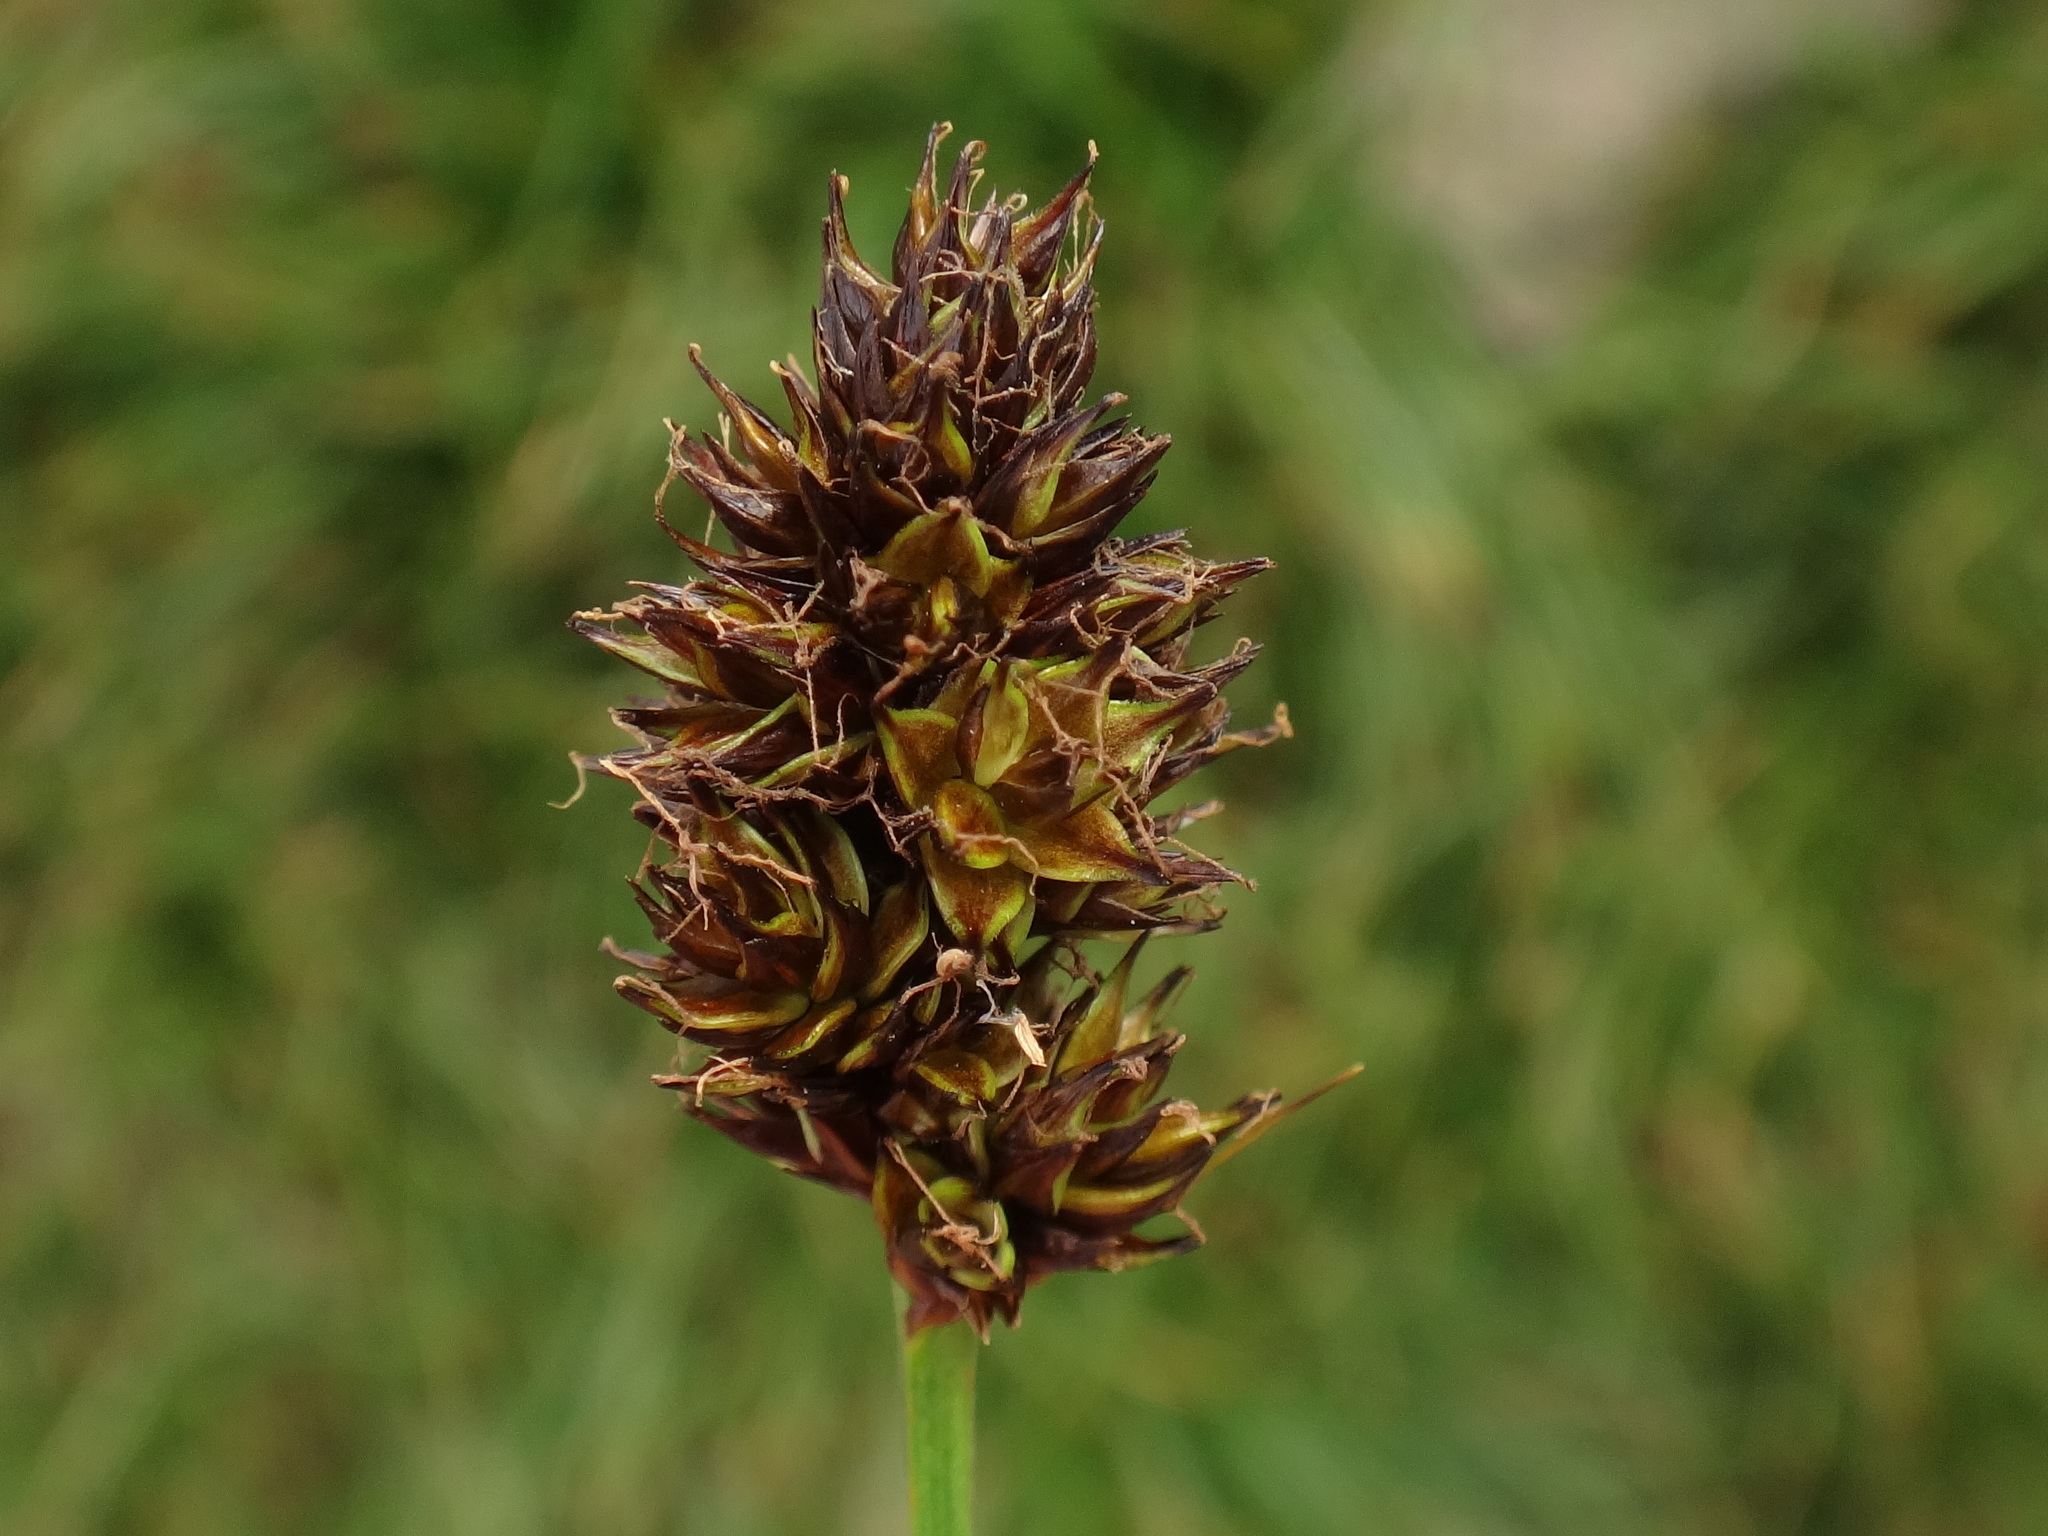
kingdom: Plantae
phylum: Tracheophyta
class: Liliopsida
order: Poales
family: Cyperaceae
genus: Carex
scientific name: Carex foetida
